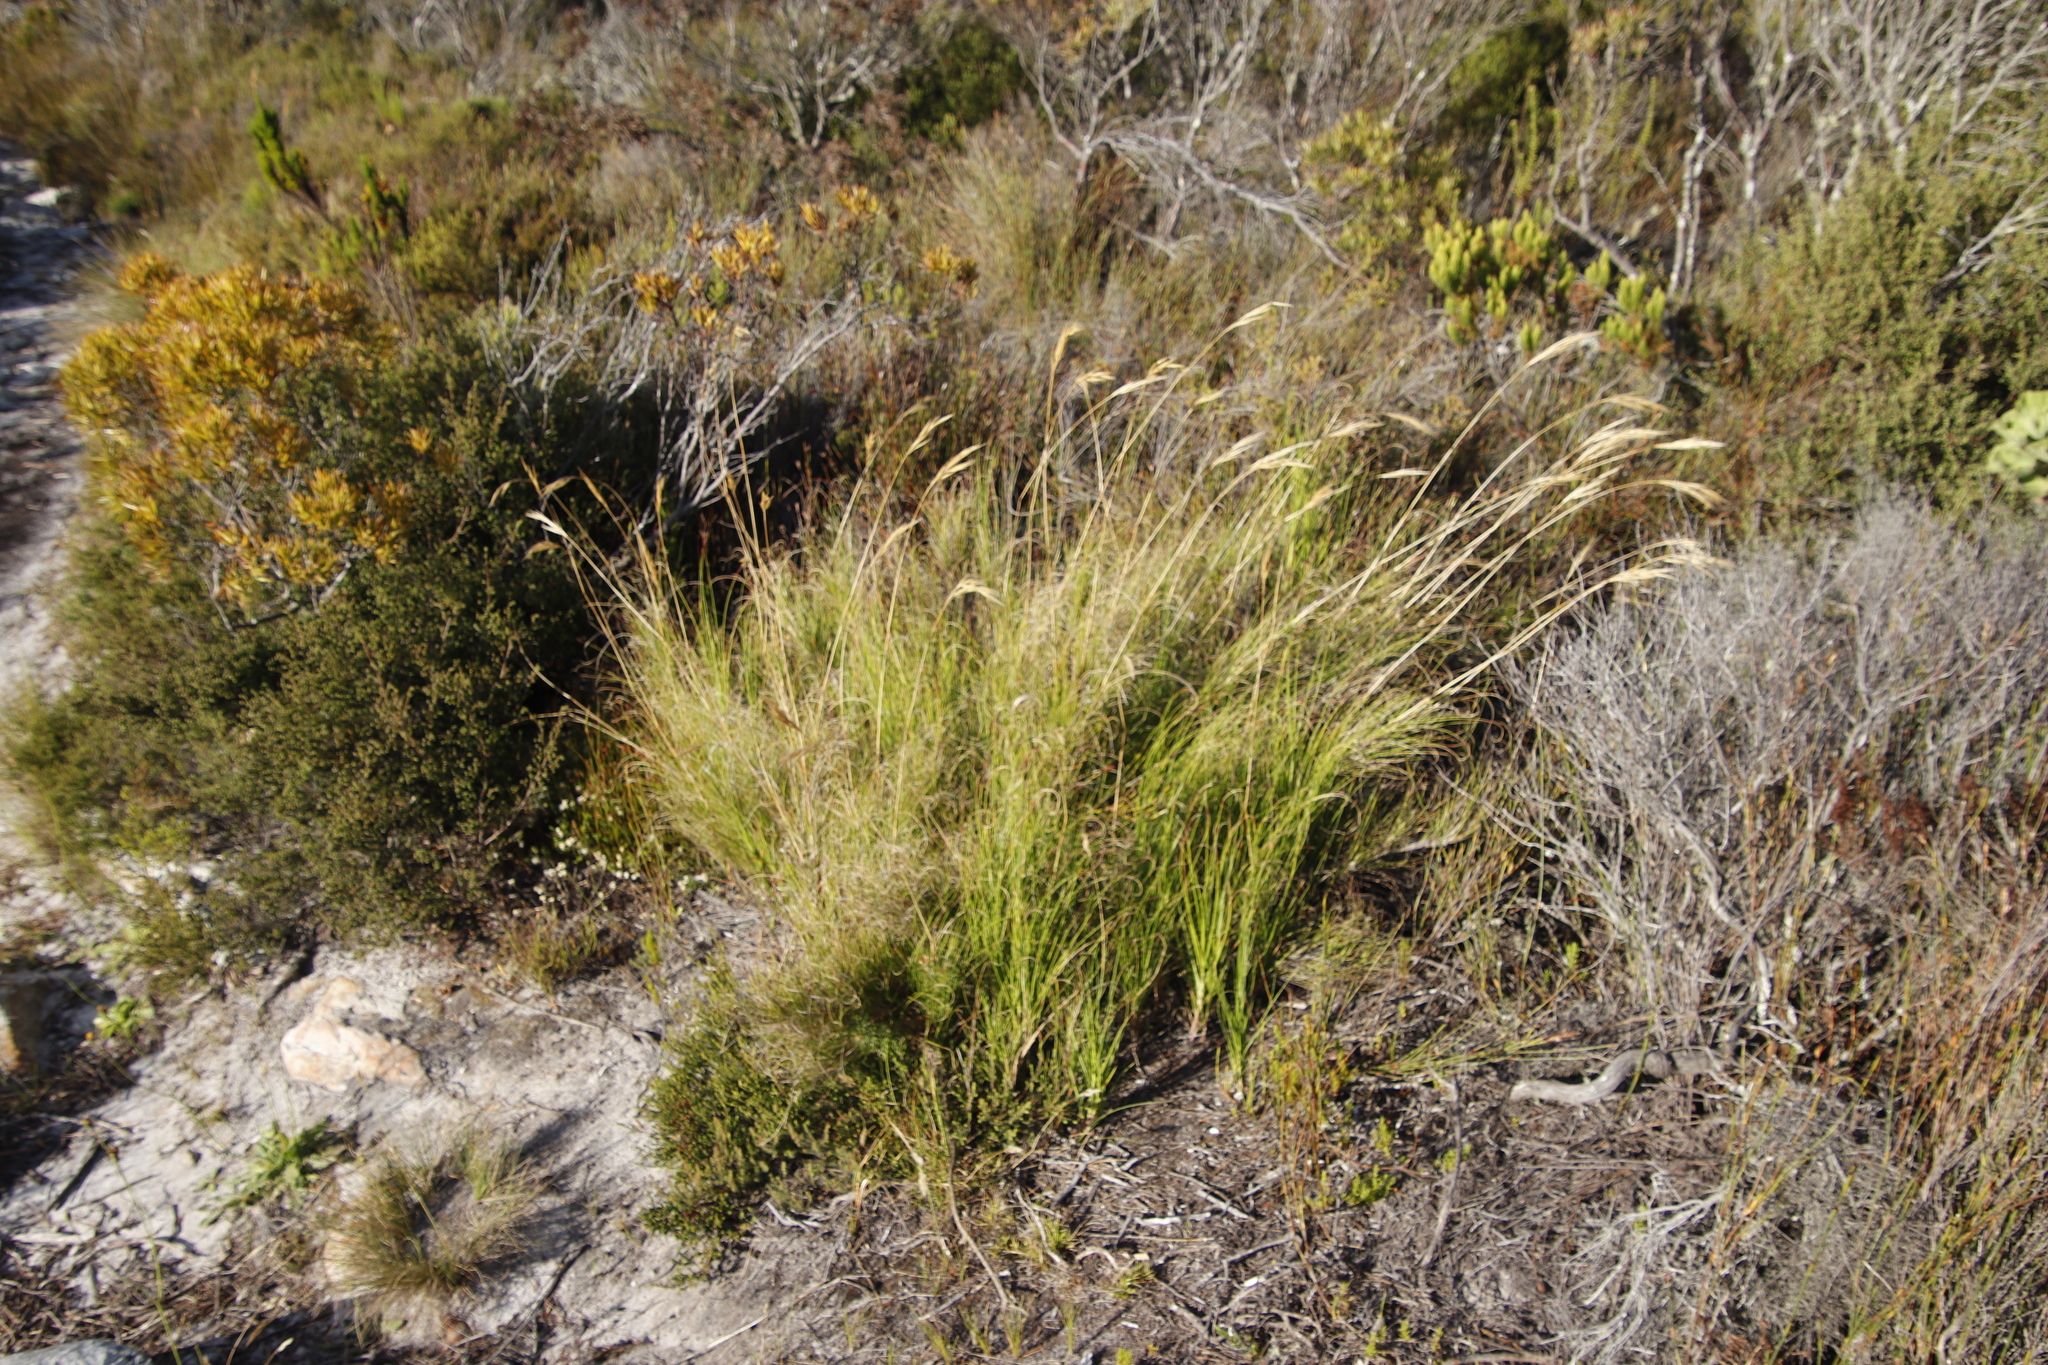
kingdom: Plantae
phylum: Tracheophyta
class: Liliopsida
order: Poales
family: Poaceae
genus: Pseudopentameris
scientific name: Pseudopentameris macrantha
